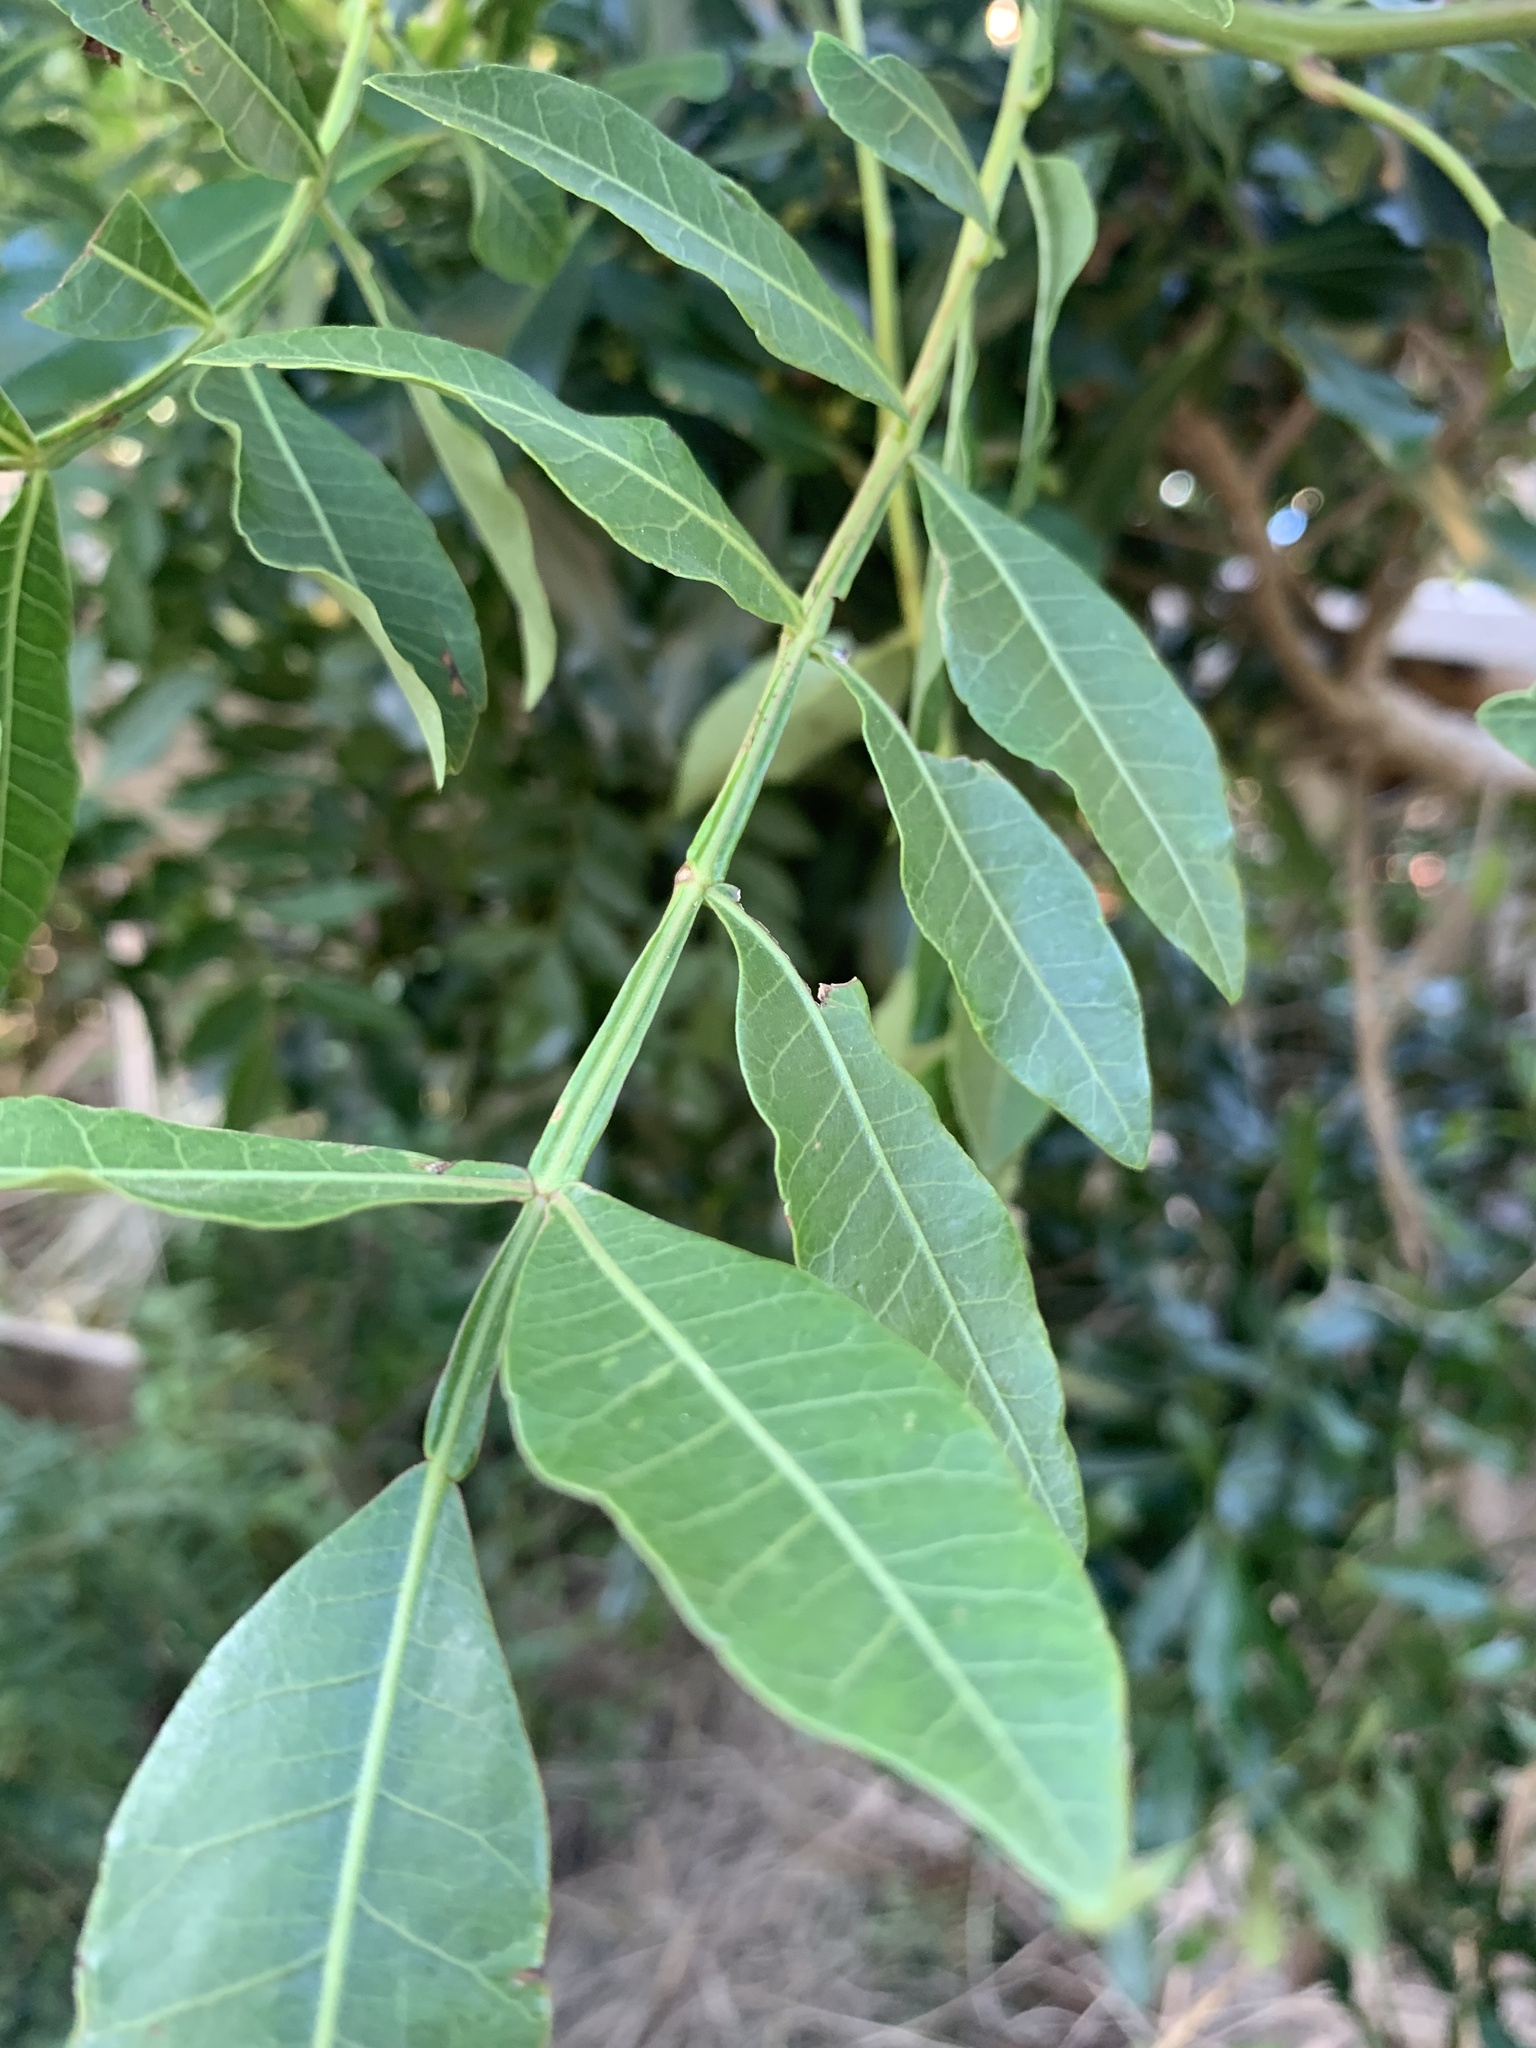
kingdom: Plantae
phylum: Tracheophyta
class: Magnoliopsida
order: Sapindales
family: Anacardiaceae
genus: Schinus
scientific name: Schinus terebinthifolia
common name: Brazilian peppertree
